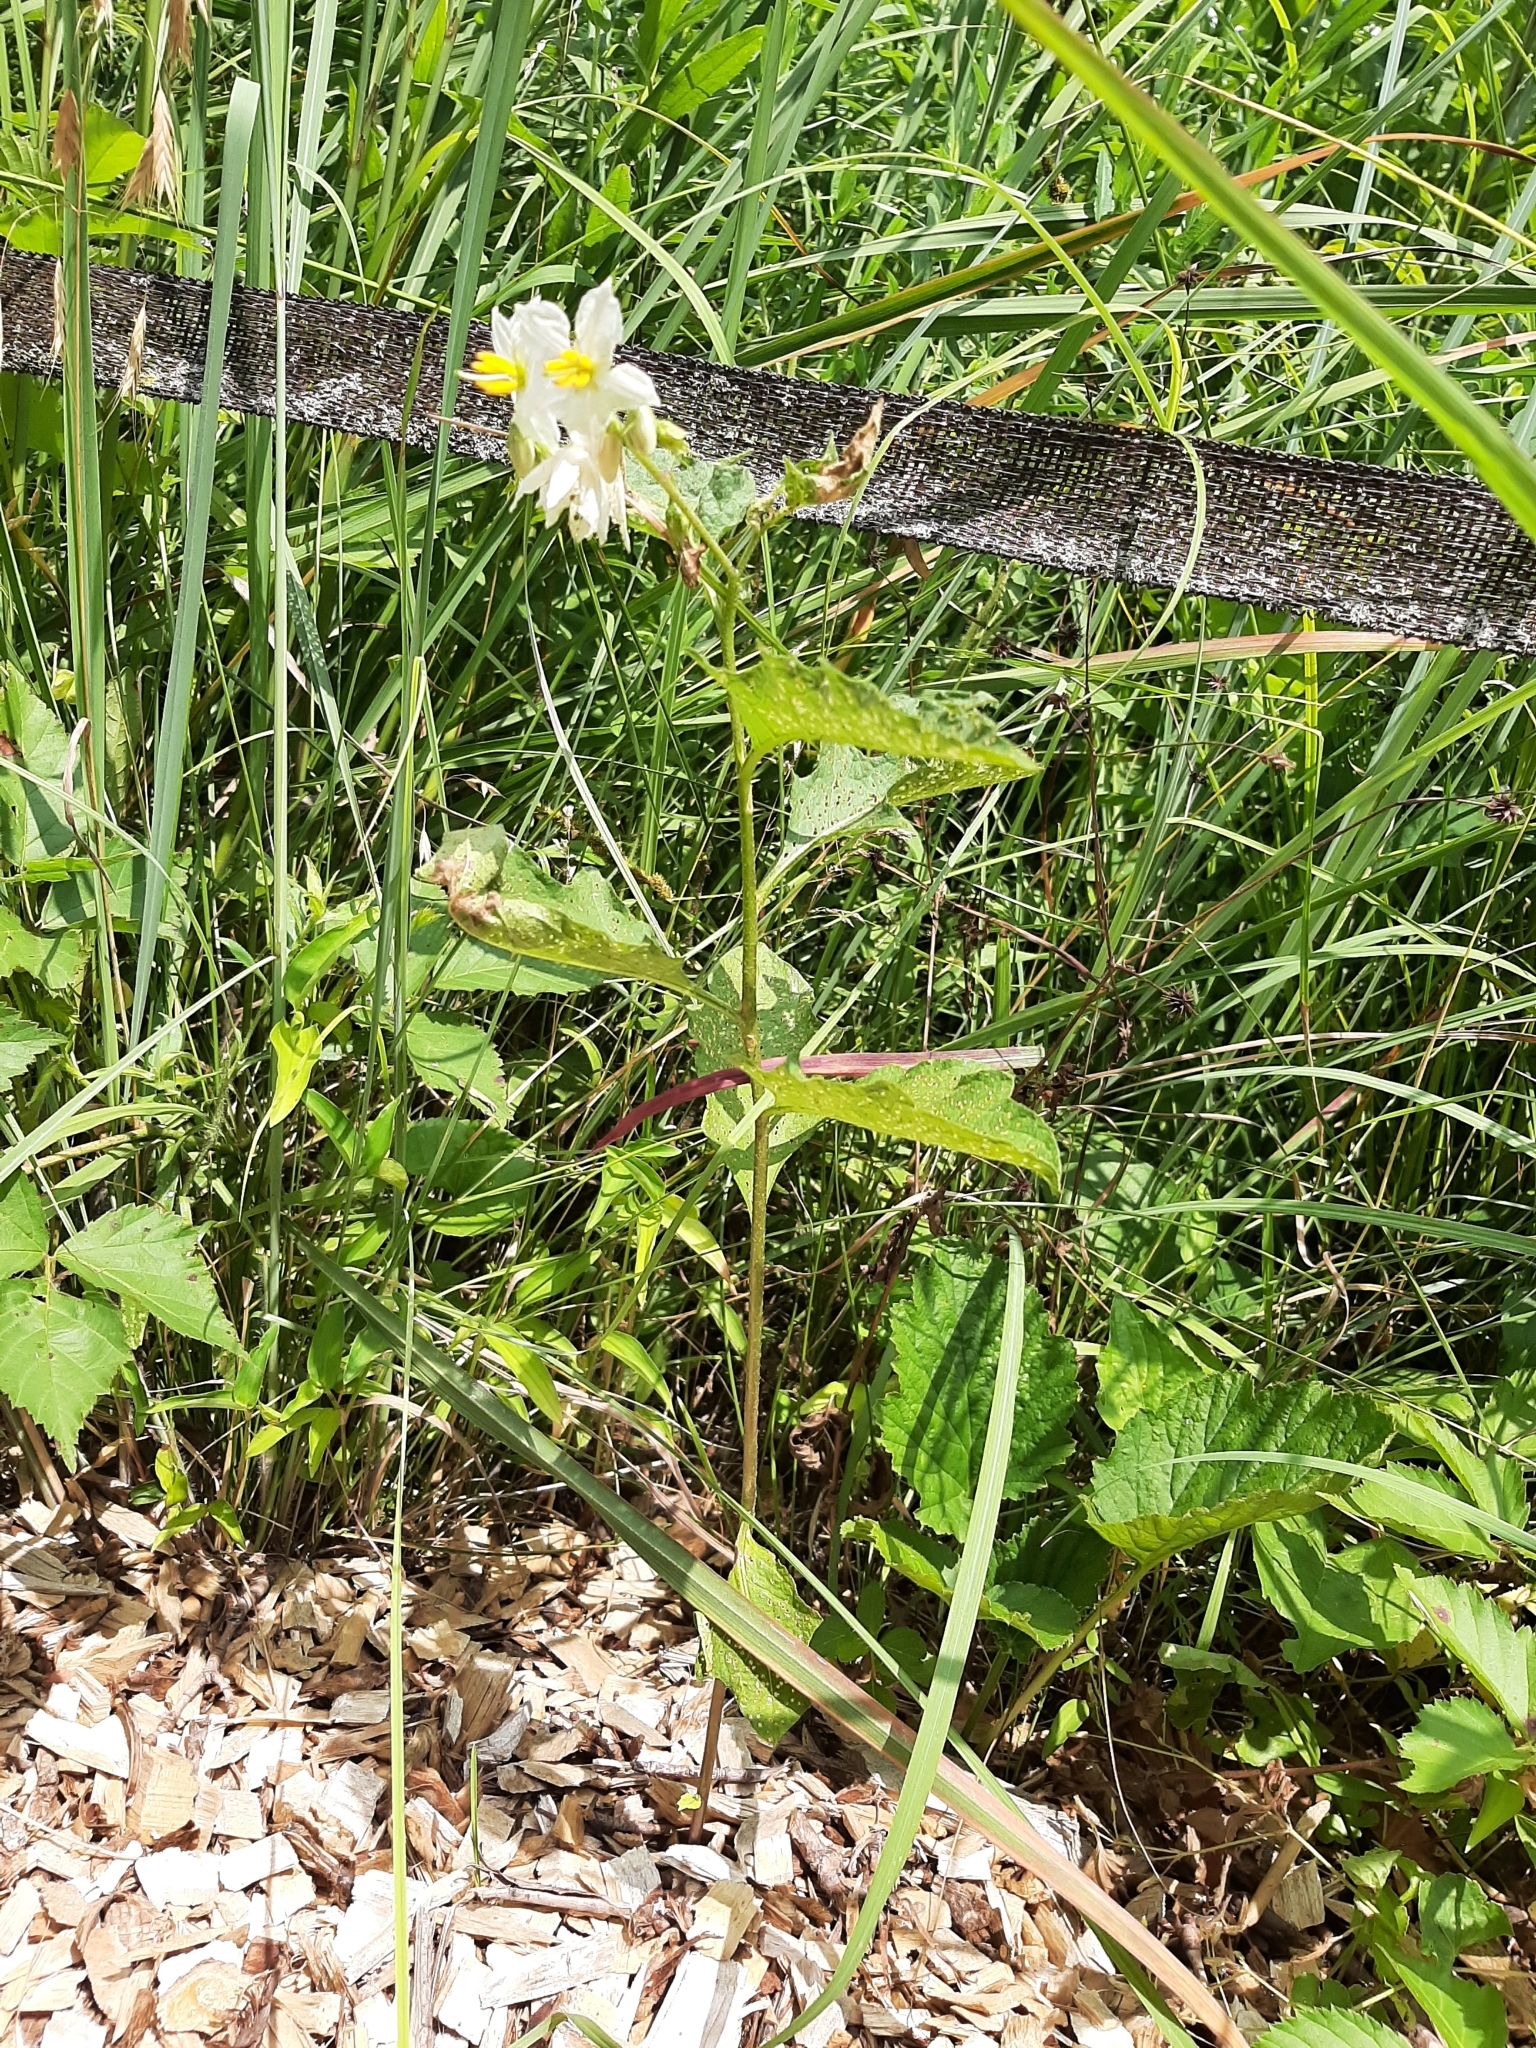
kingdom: Plantae
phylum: Tracheophyta
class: Magnoliopsida
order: Solanales
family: Solanaceae
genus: Solanum
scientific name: Solanum carolinense
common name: Horse-nettle
